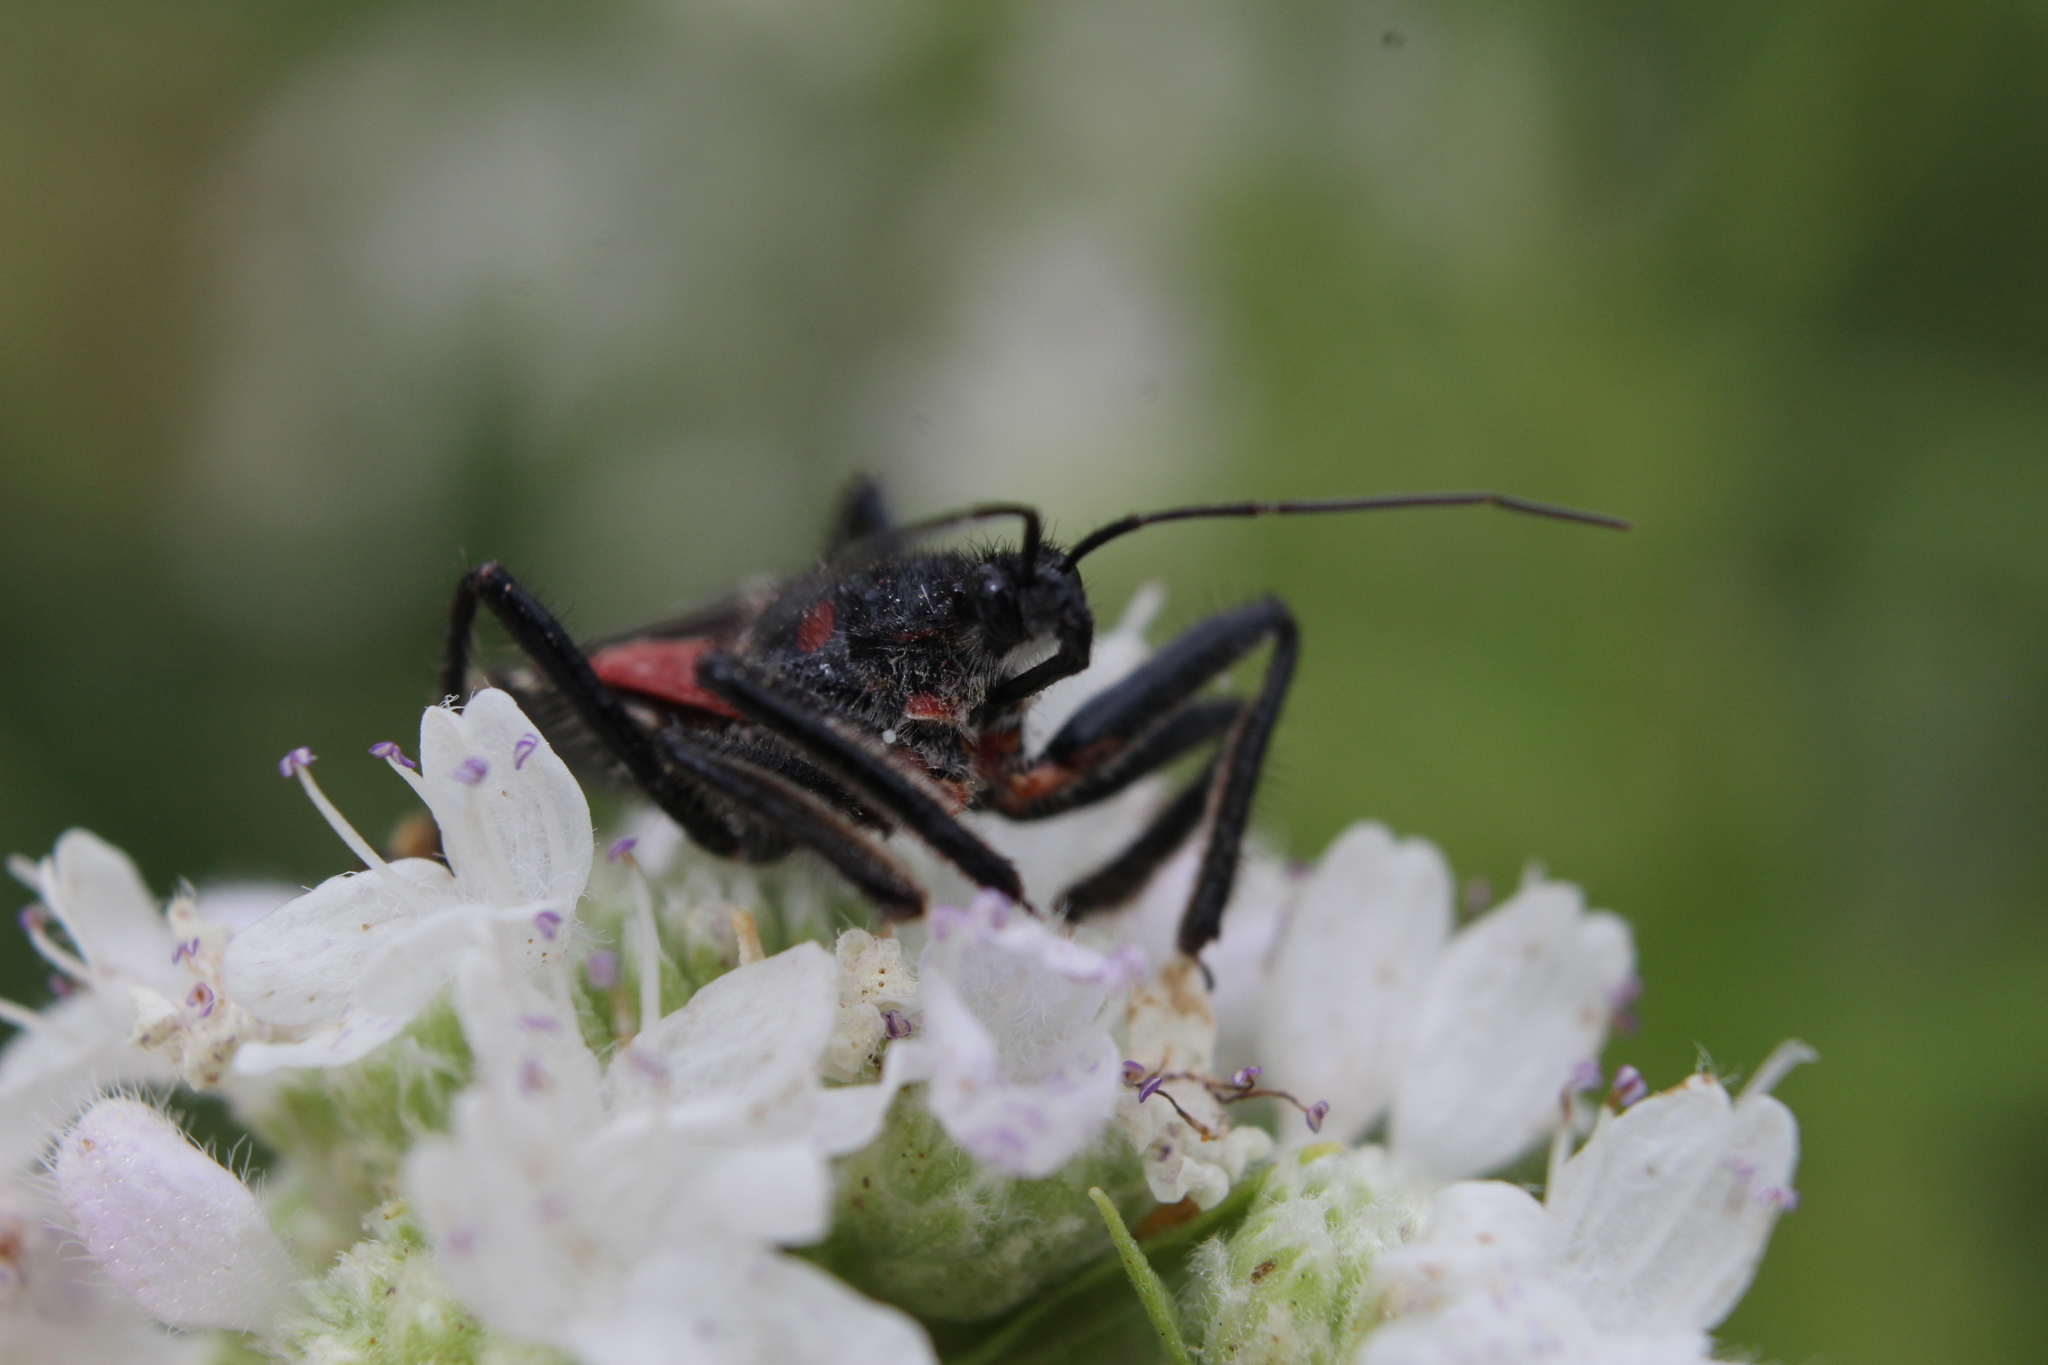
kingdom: Animalia
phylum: Arthropoda
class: Insecta
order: Hemiptera
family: Reduviidae
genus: Apiomerus
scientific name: Apiomerus montanus
